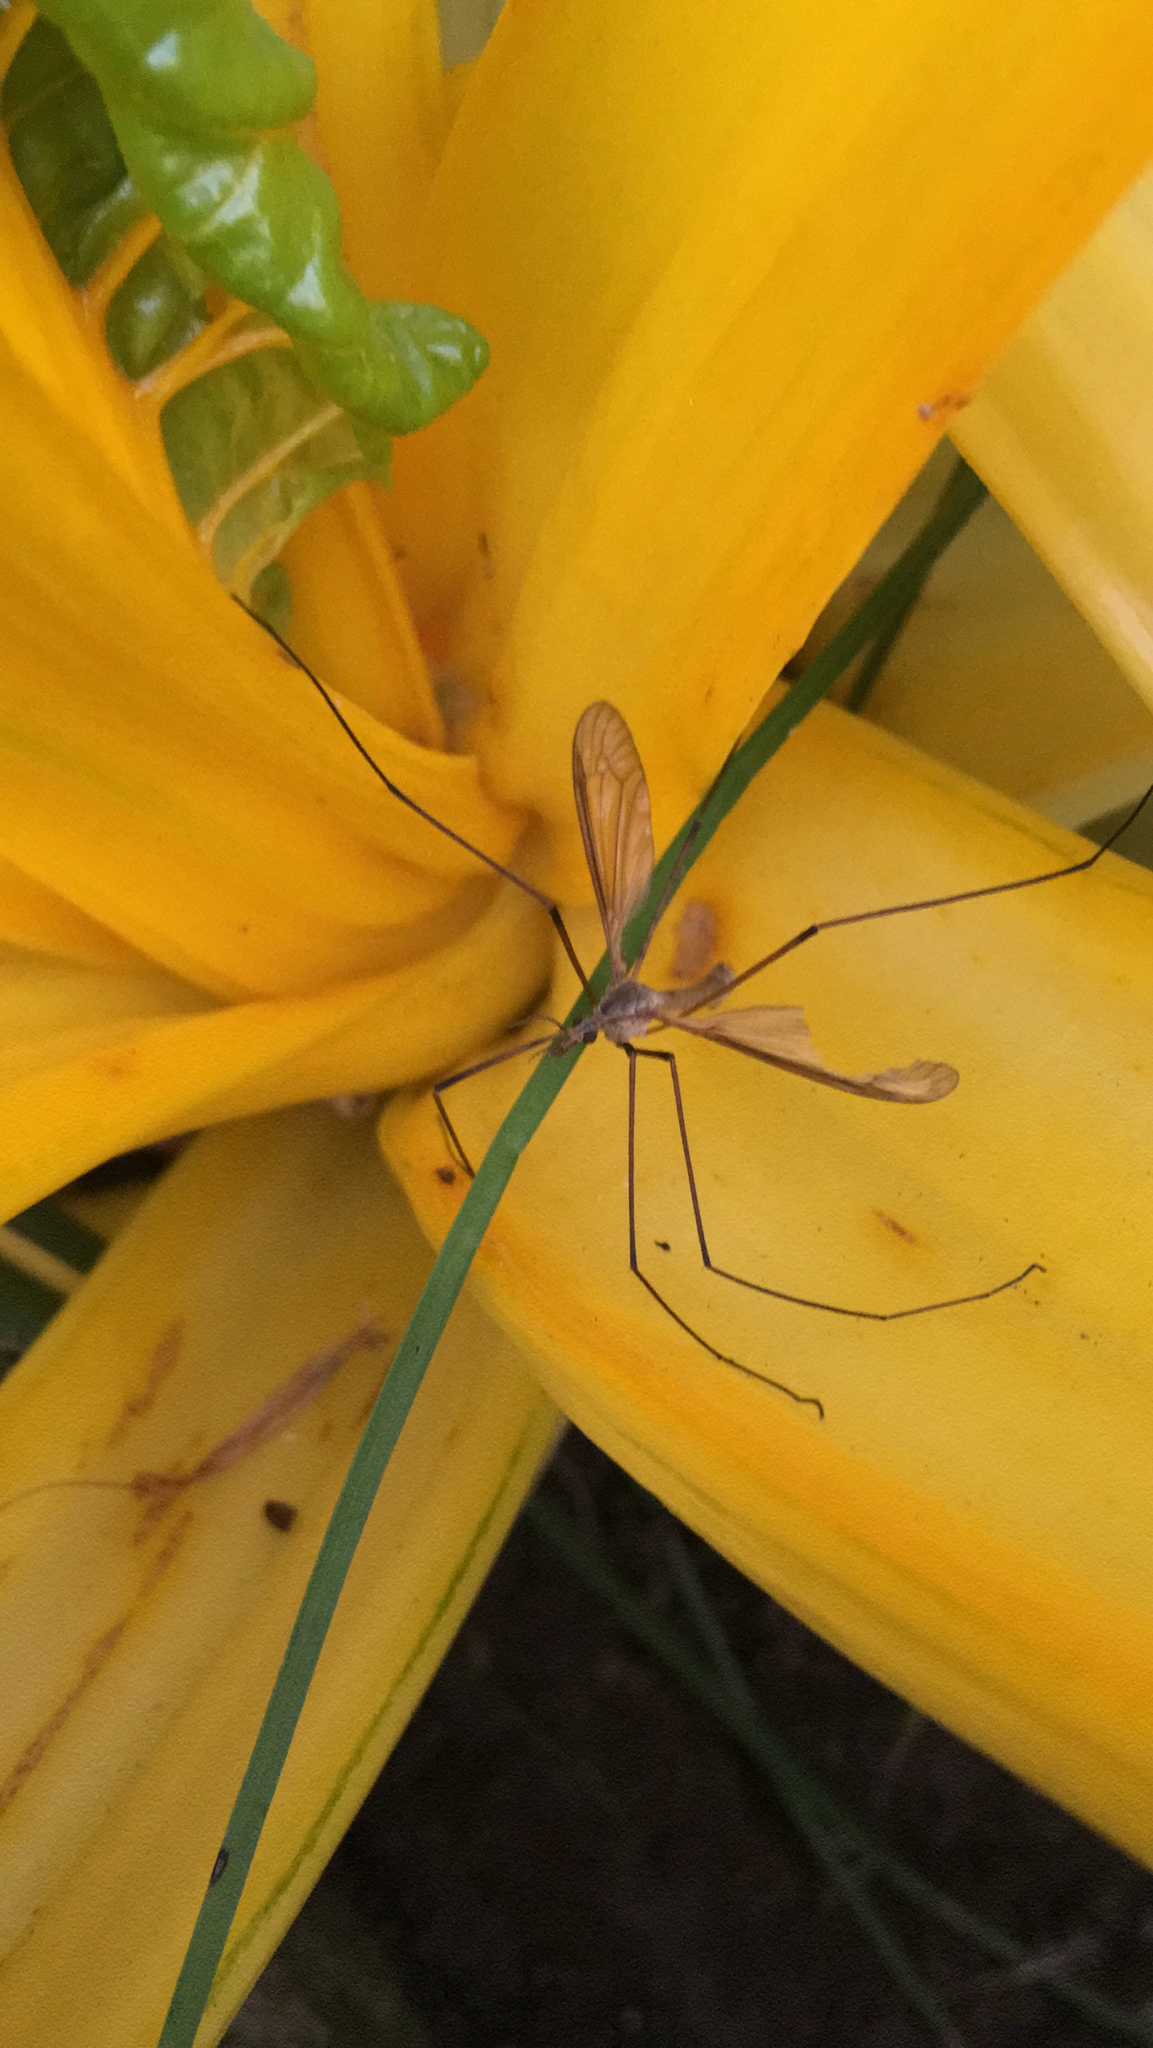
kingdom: Animalia
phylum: Arthropoda
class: Insecta
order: Diptera
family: Tipulidae
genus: Tipula
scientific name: Tipula
